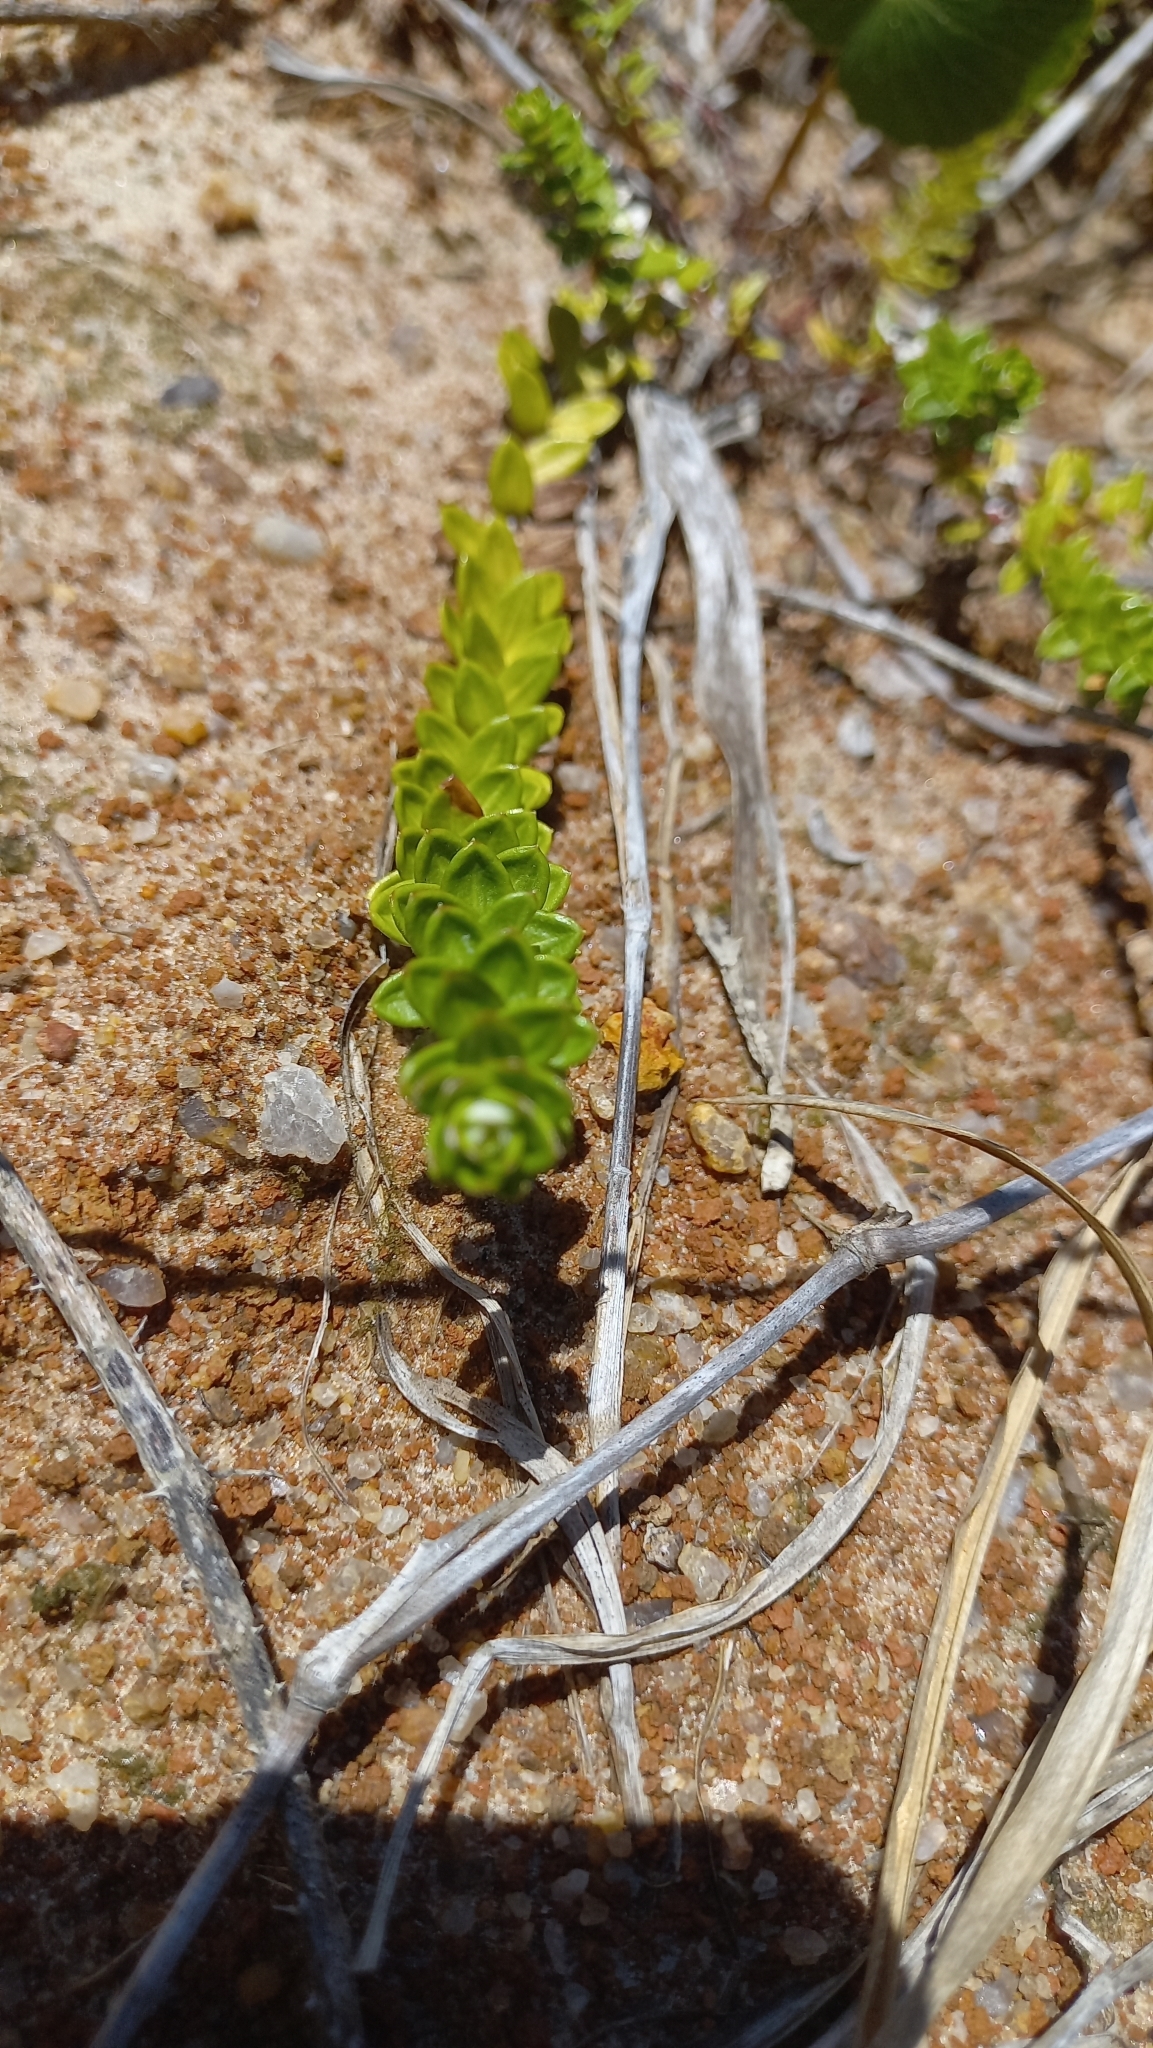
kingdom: Plantae
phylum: Tracheophyta
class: Magnoliopsida
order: Asterales
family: Asteraceae
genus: Baccharis
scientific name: Baccharis gnaphalioides
